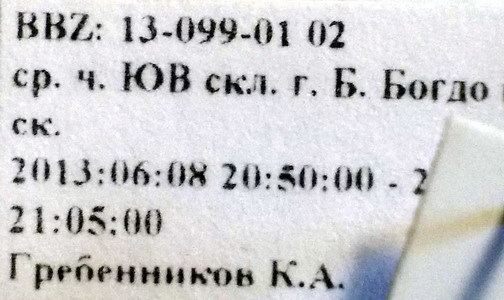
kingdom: Animalia
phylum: Arthropoda
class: Insecta
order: Hemiptera
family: Pentatomidae
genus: Bagrada
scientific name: Bagrada stolida
